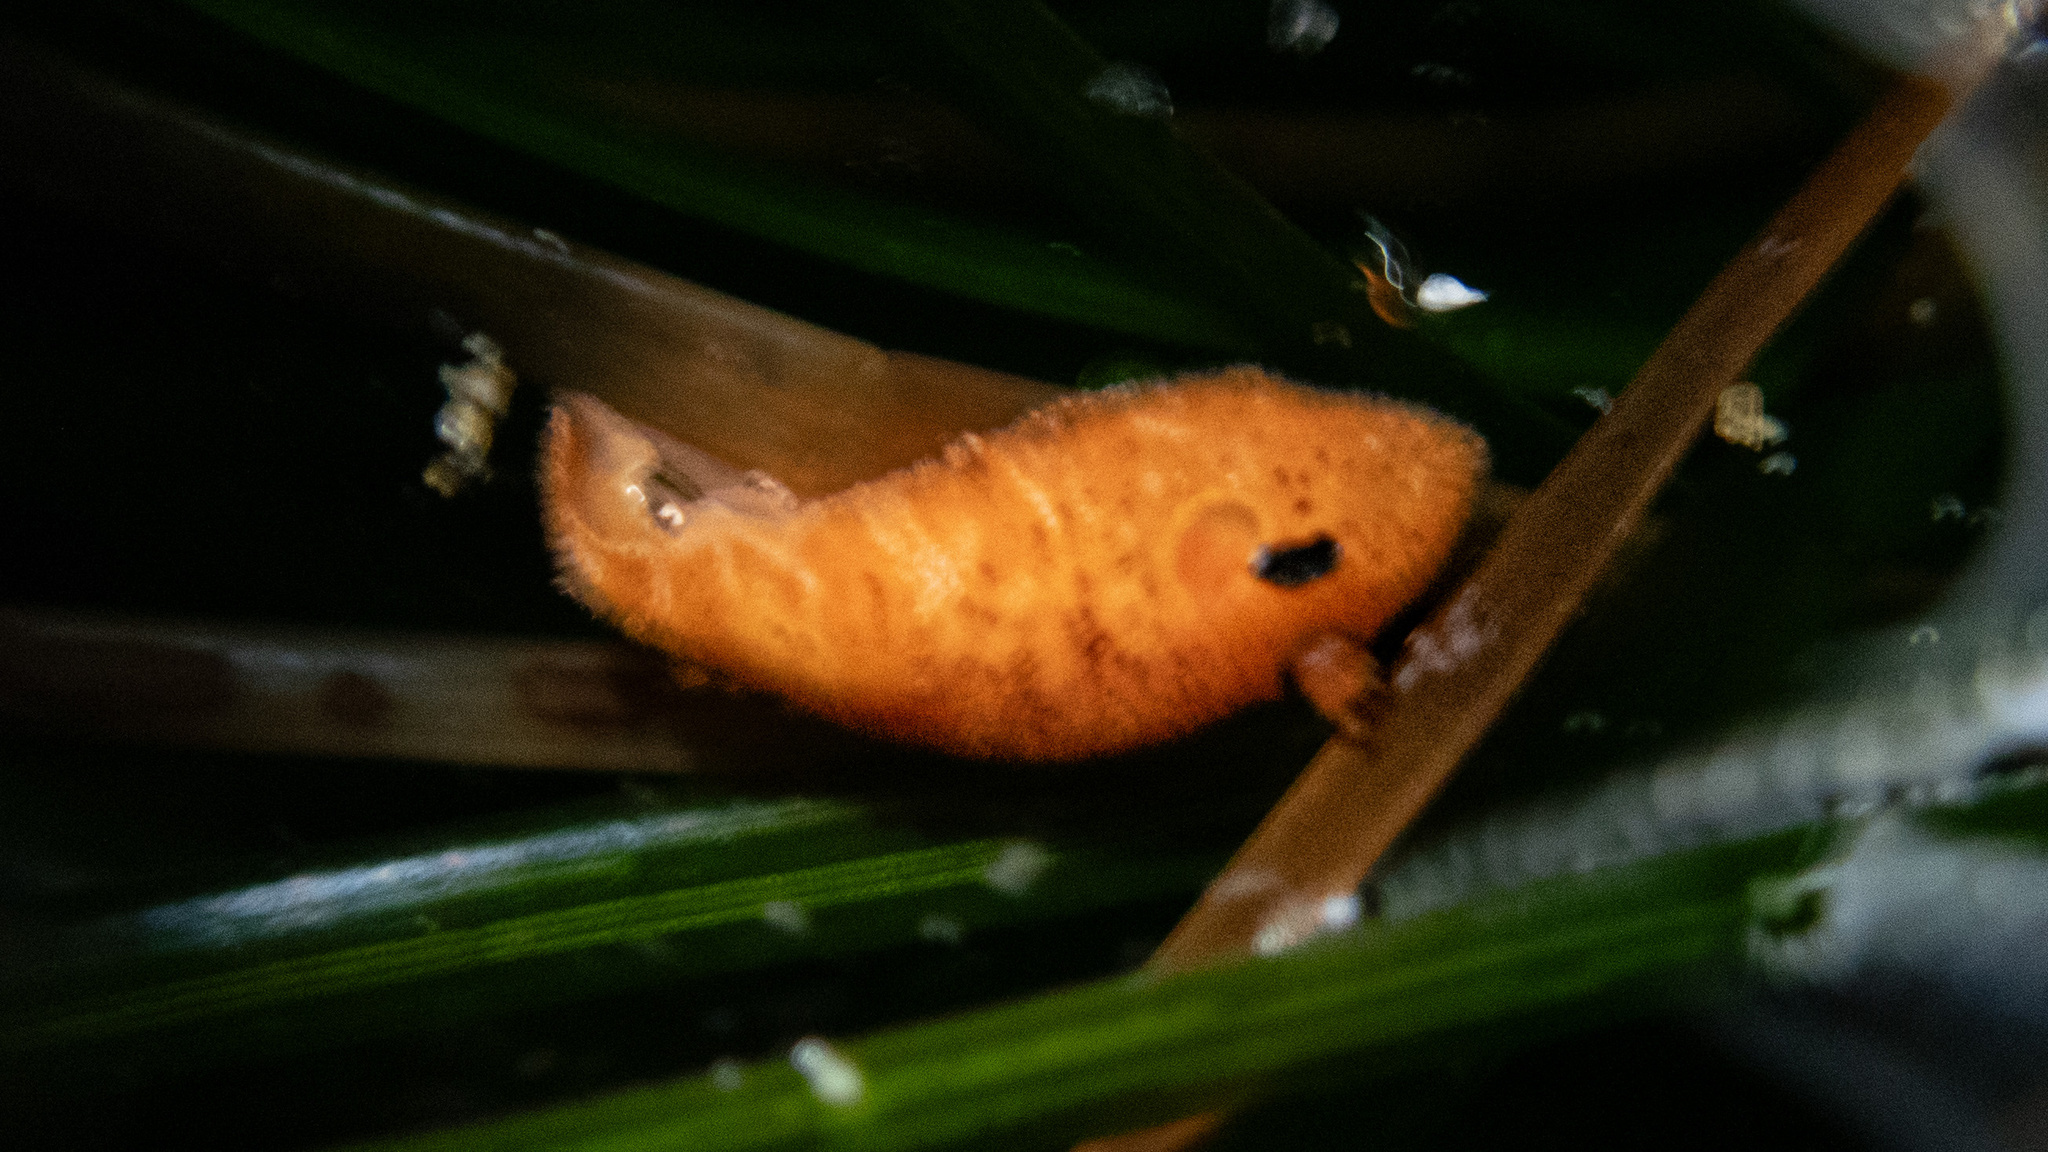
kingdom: Animalia
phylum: Mollusca
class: Gastropoda
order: Nudibranchia
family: Discodorididae
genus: Rostanga
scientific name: Rostanga pulchra
